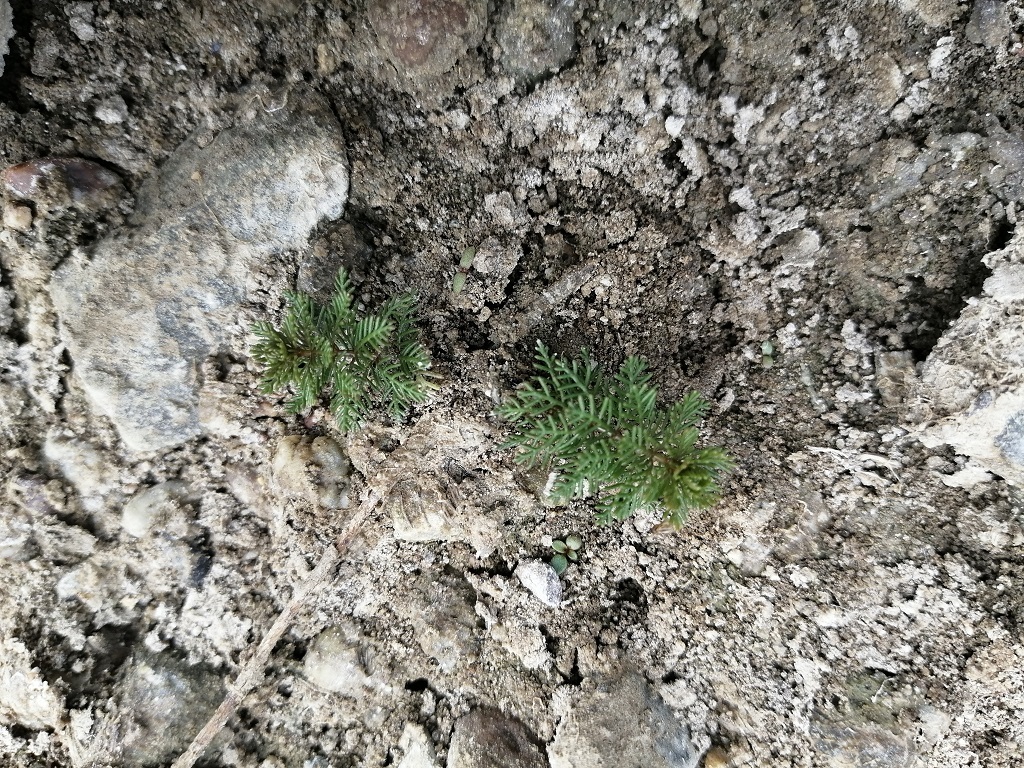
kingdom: Plantae
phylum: Tracheophyta
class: Magnoliopsida
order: Saxifragales
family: Haloragaceae
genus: Myriophyllum
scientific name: Myriophyllum verticillatum
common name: Whorled water-milfoil
